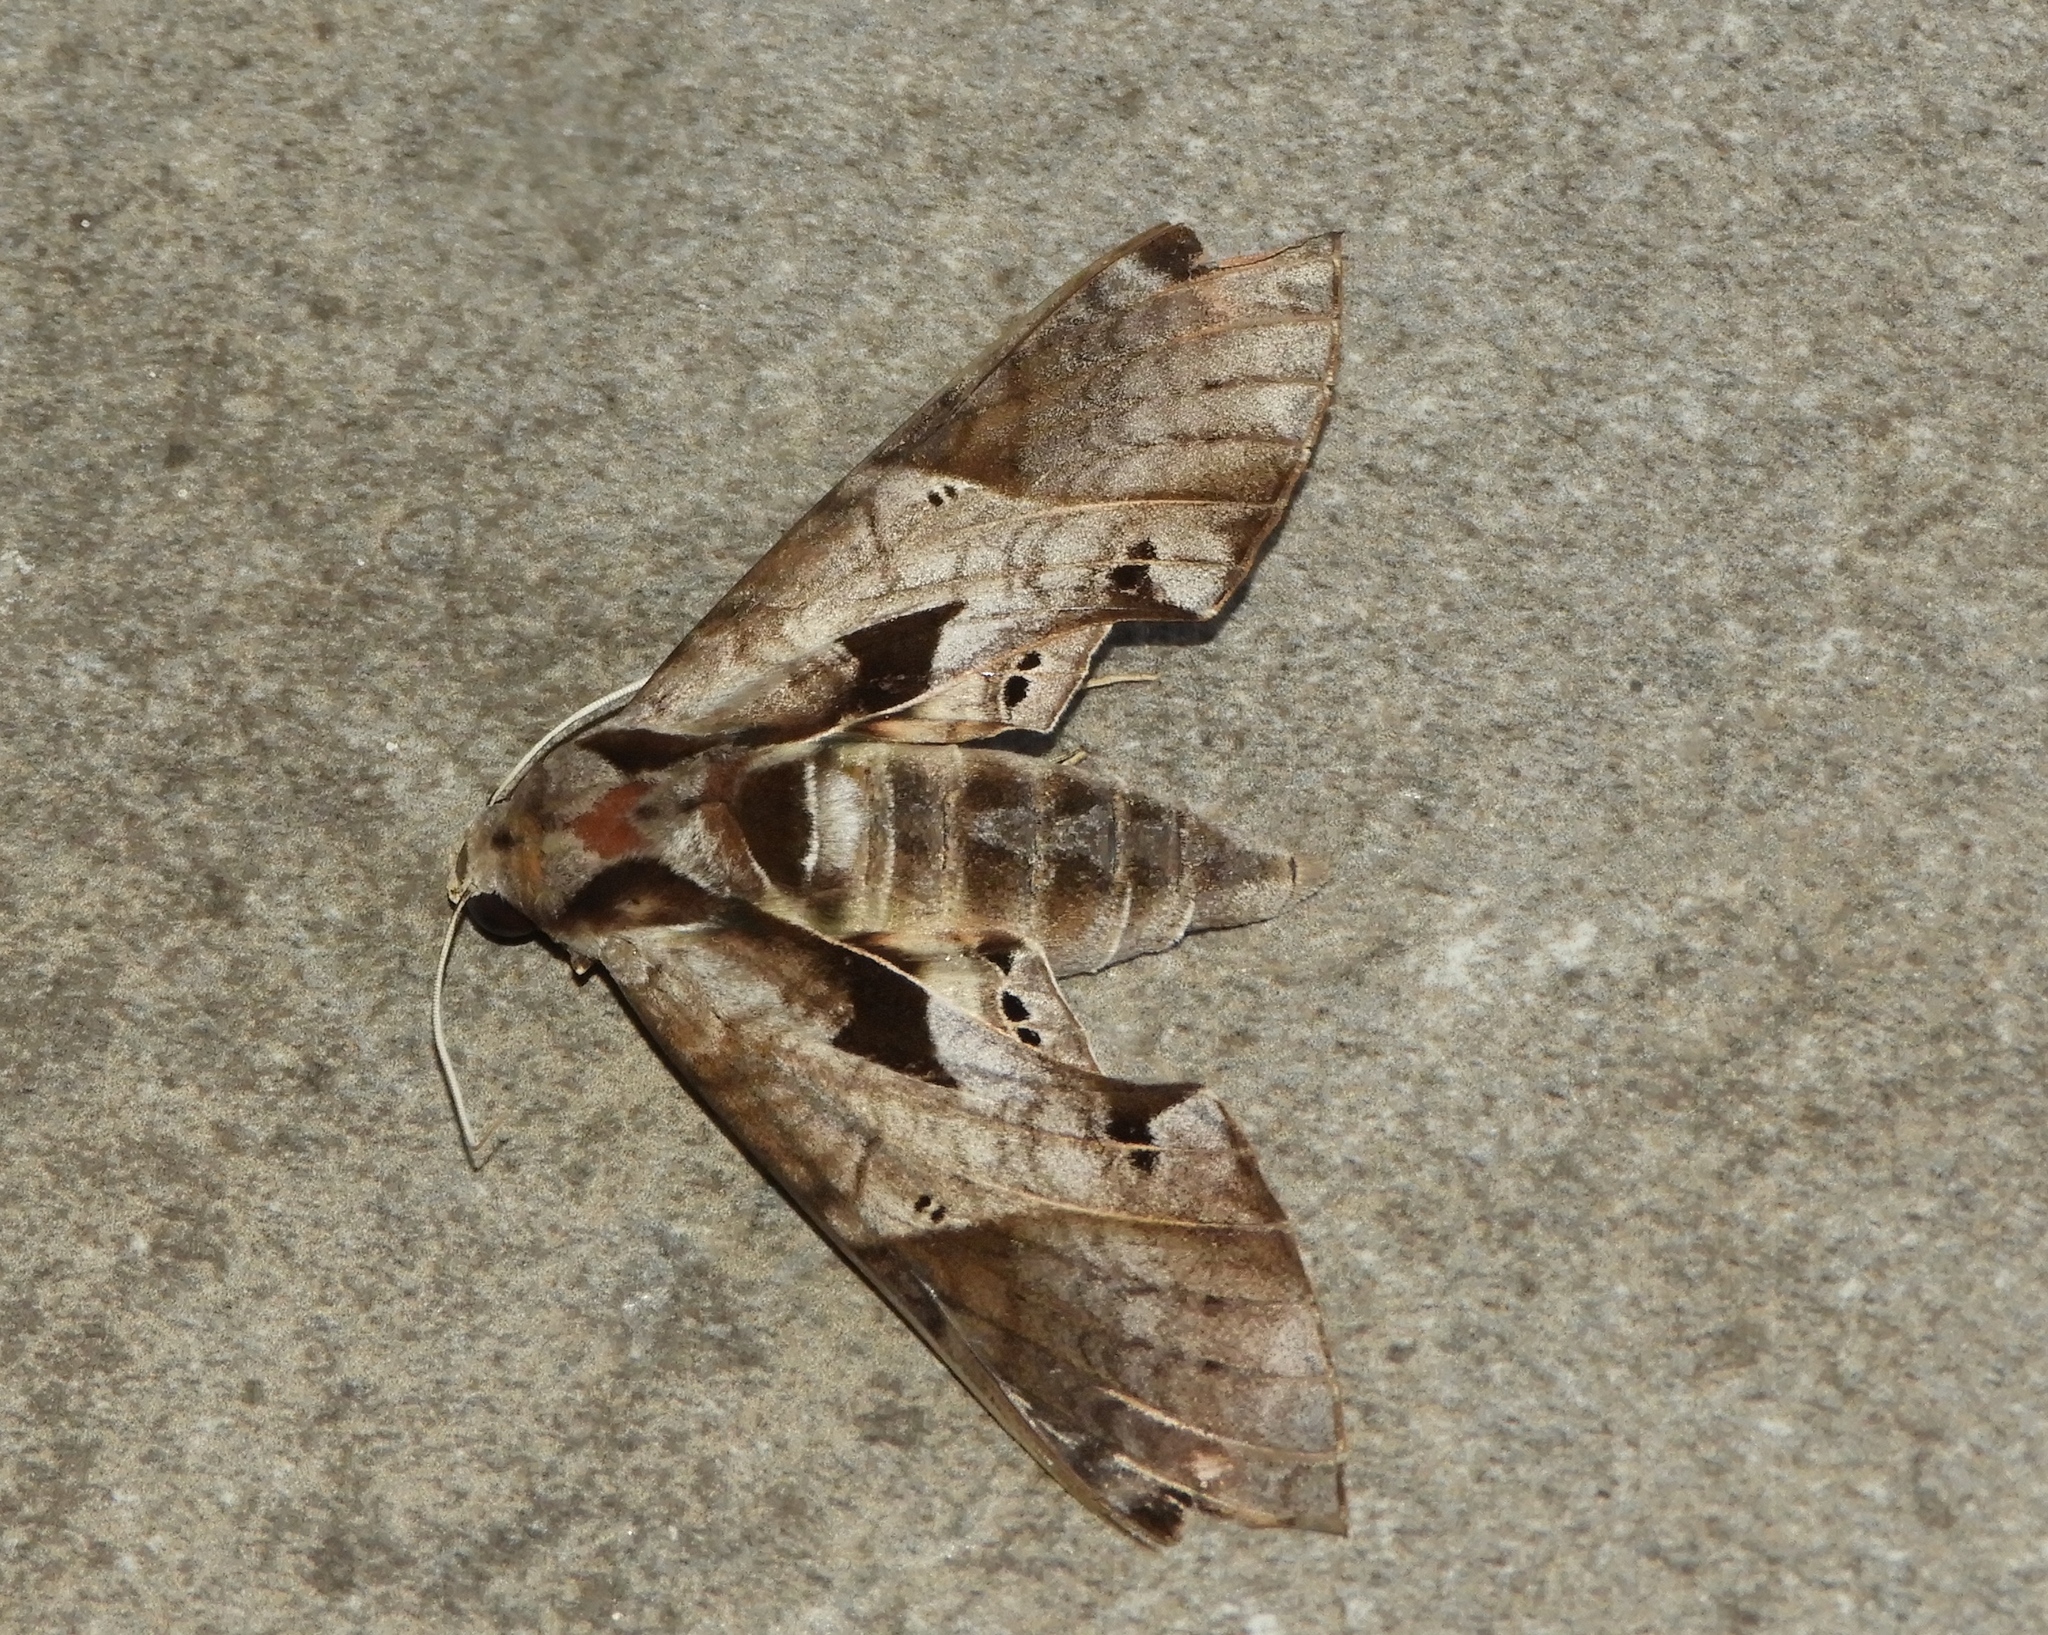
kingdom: Animalia
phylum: Arthropoda
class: Insecta
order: Lepidoptera
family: Sphingidae
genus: Eumorpha
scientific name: Eumorpha satellitia
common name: Satellite sphinx
